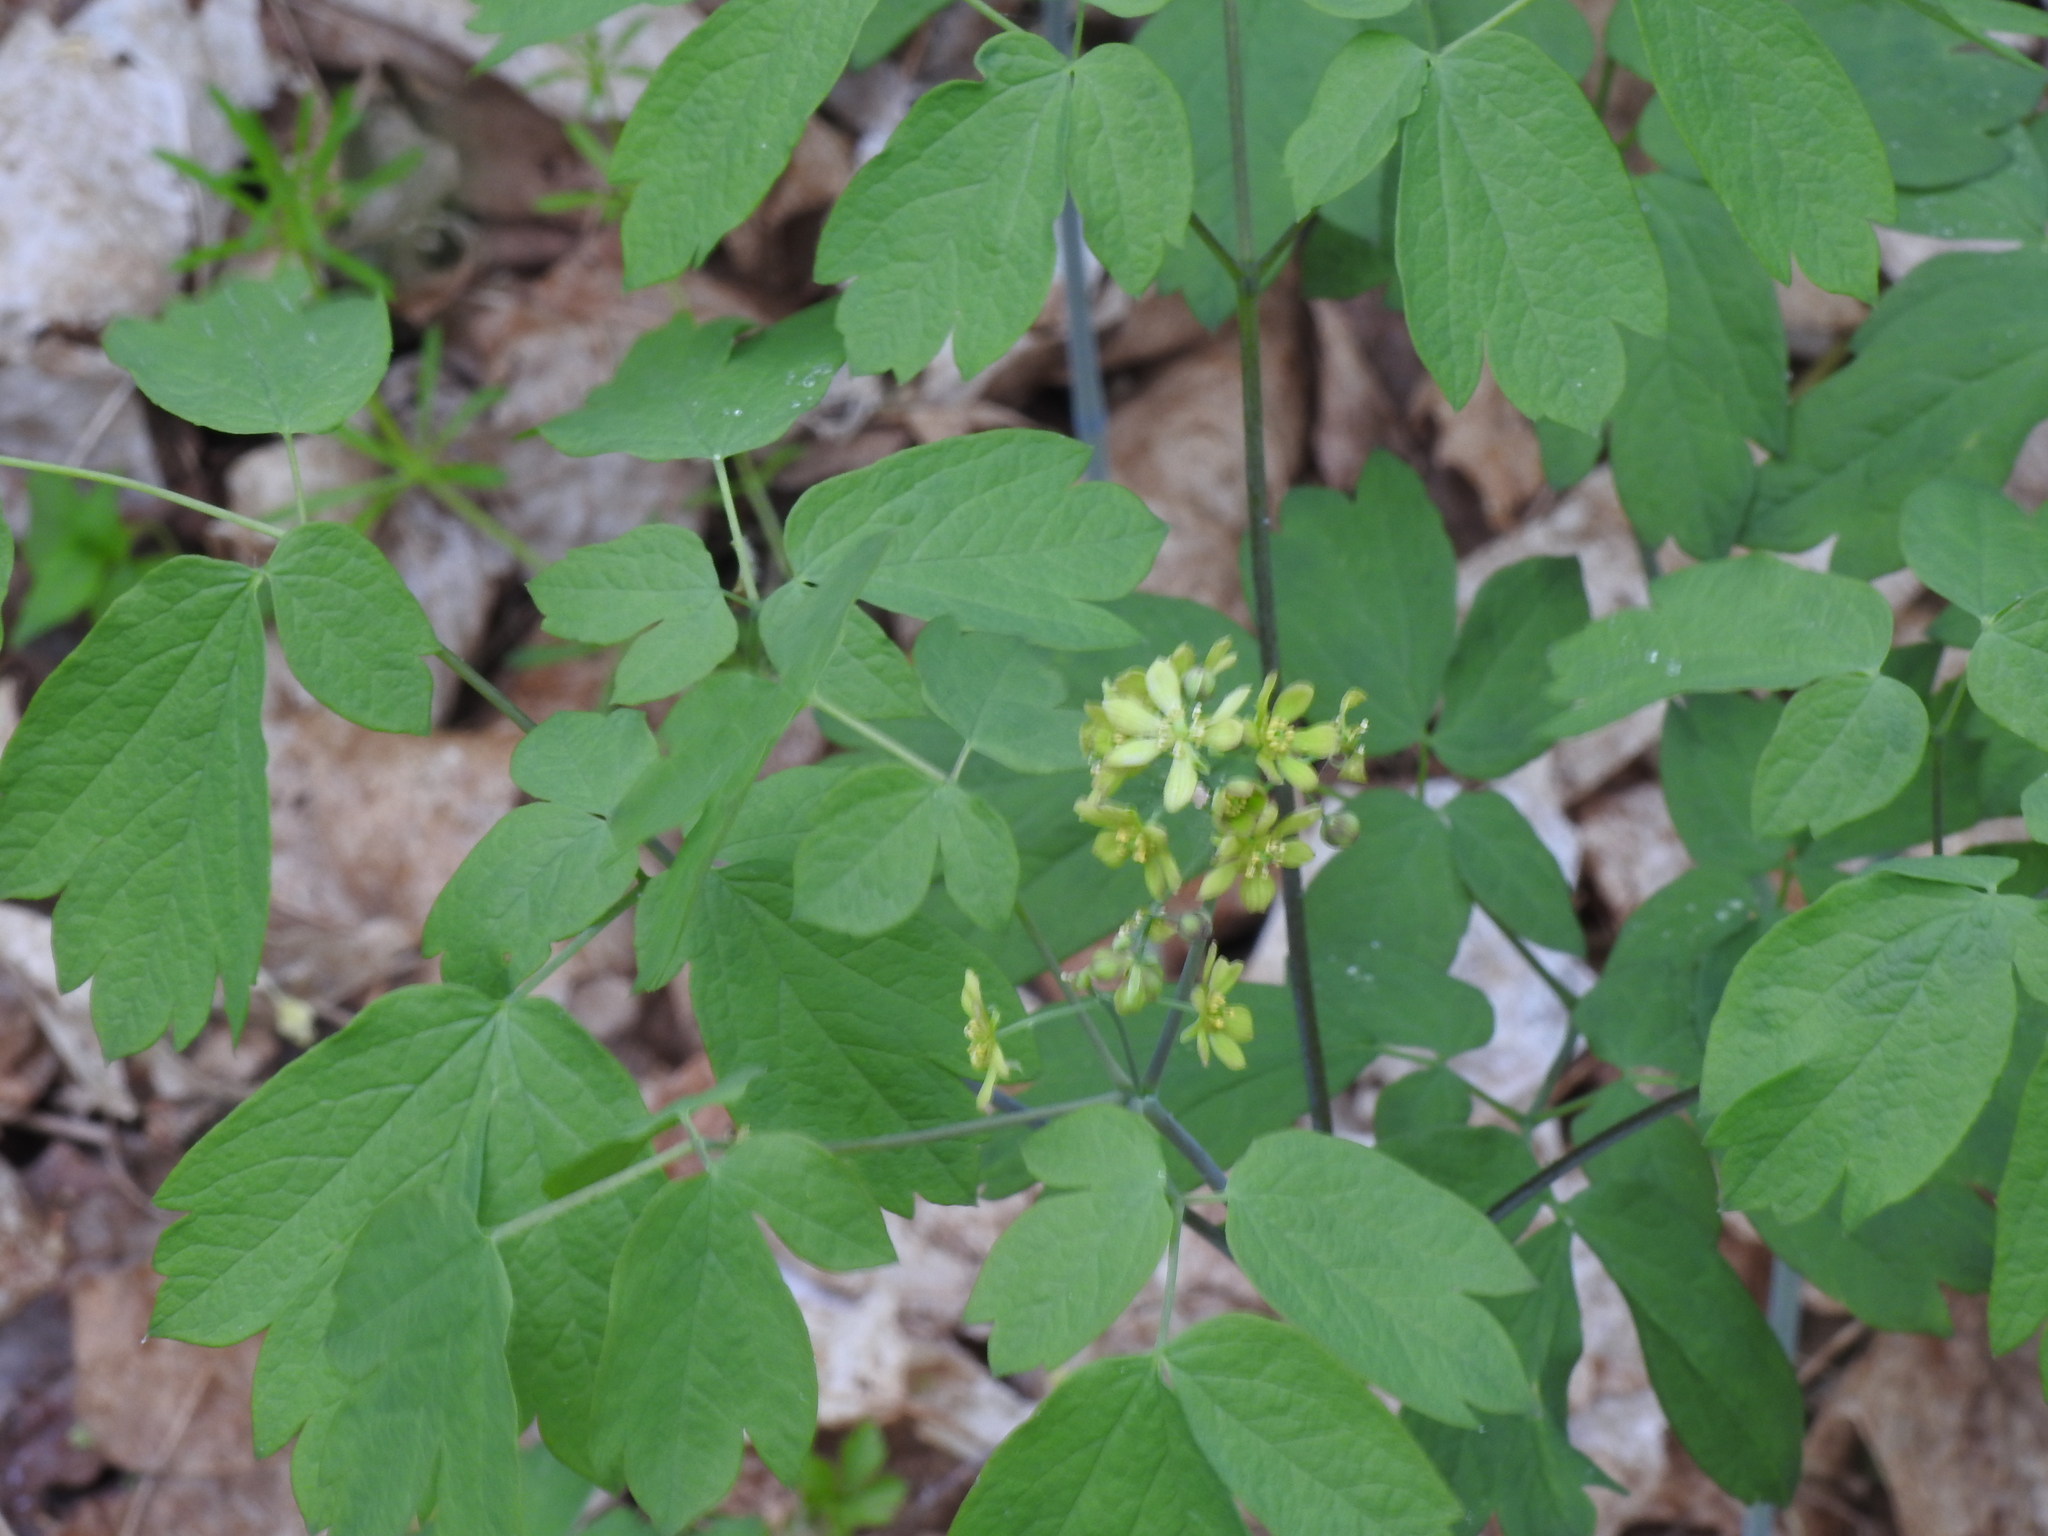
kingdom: Plantae
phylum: Tracheophyta
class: Magnoliopsida
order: Ranunculales
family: Berberidaceae
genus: Caulophyllum
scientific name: Caulophyllum thalictroides
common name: Blue cohosh
